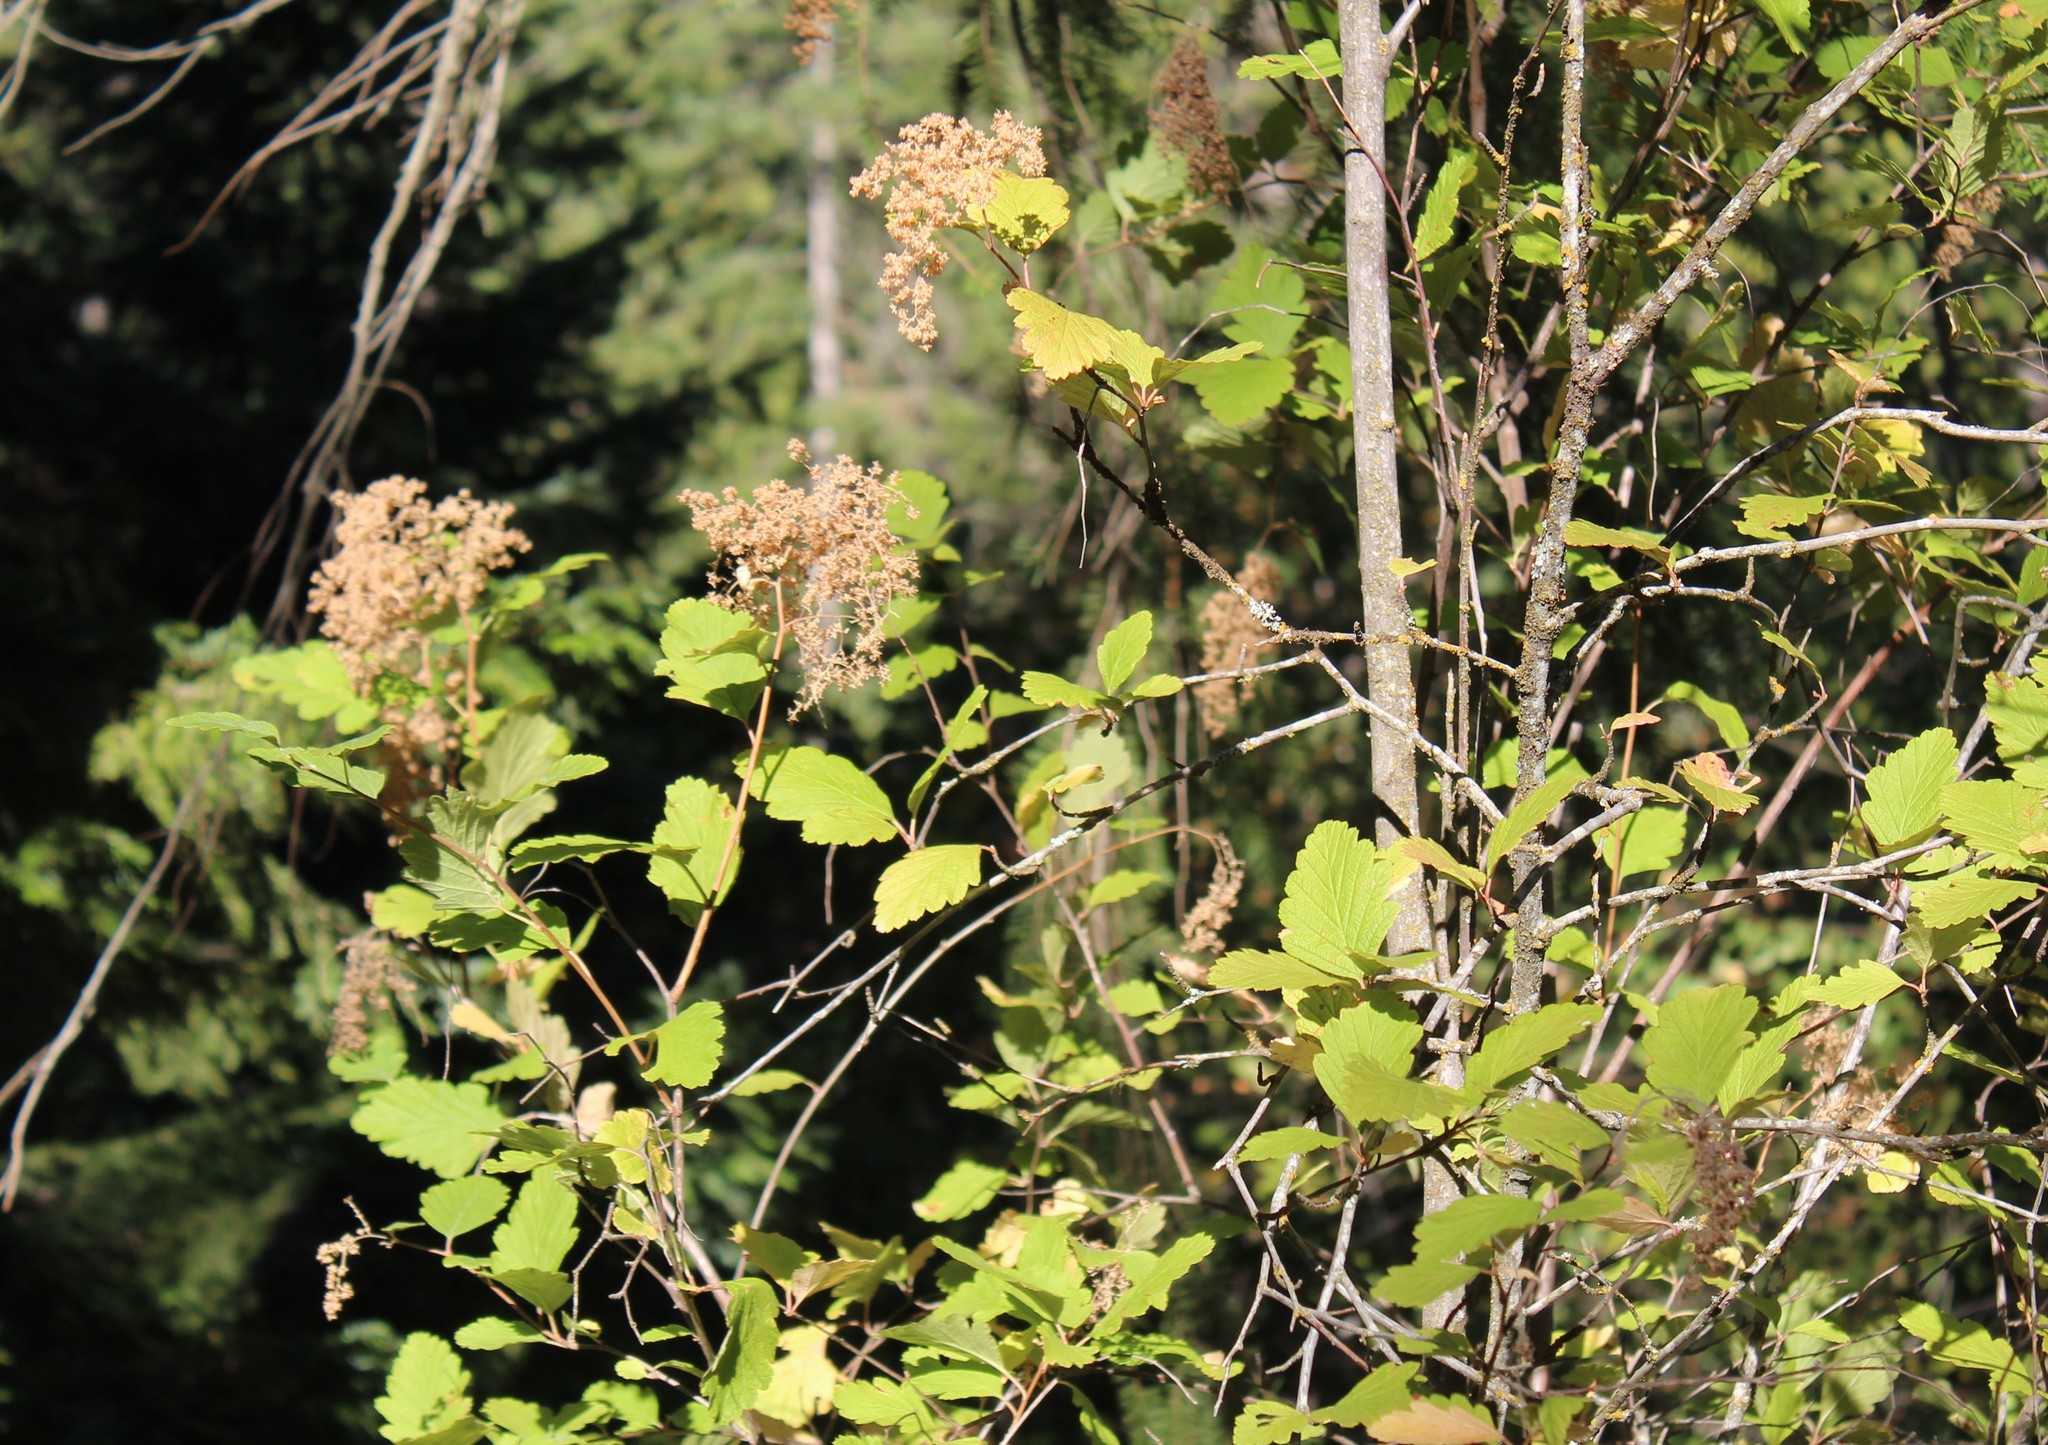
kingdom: Plantae
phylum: Tracheophyta
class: Magnoliopsida
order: Rosales
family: Rosaceae
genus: Holodiscus
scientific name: Holodiscus discolor
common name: Oceanspray
